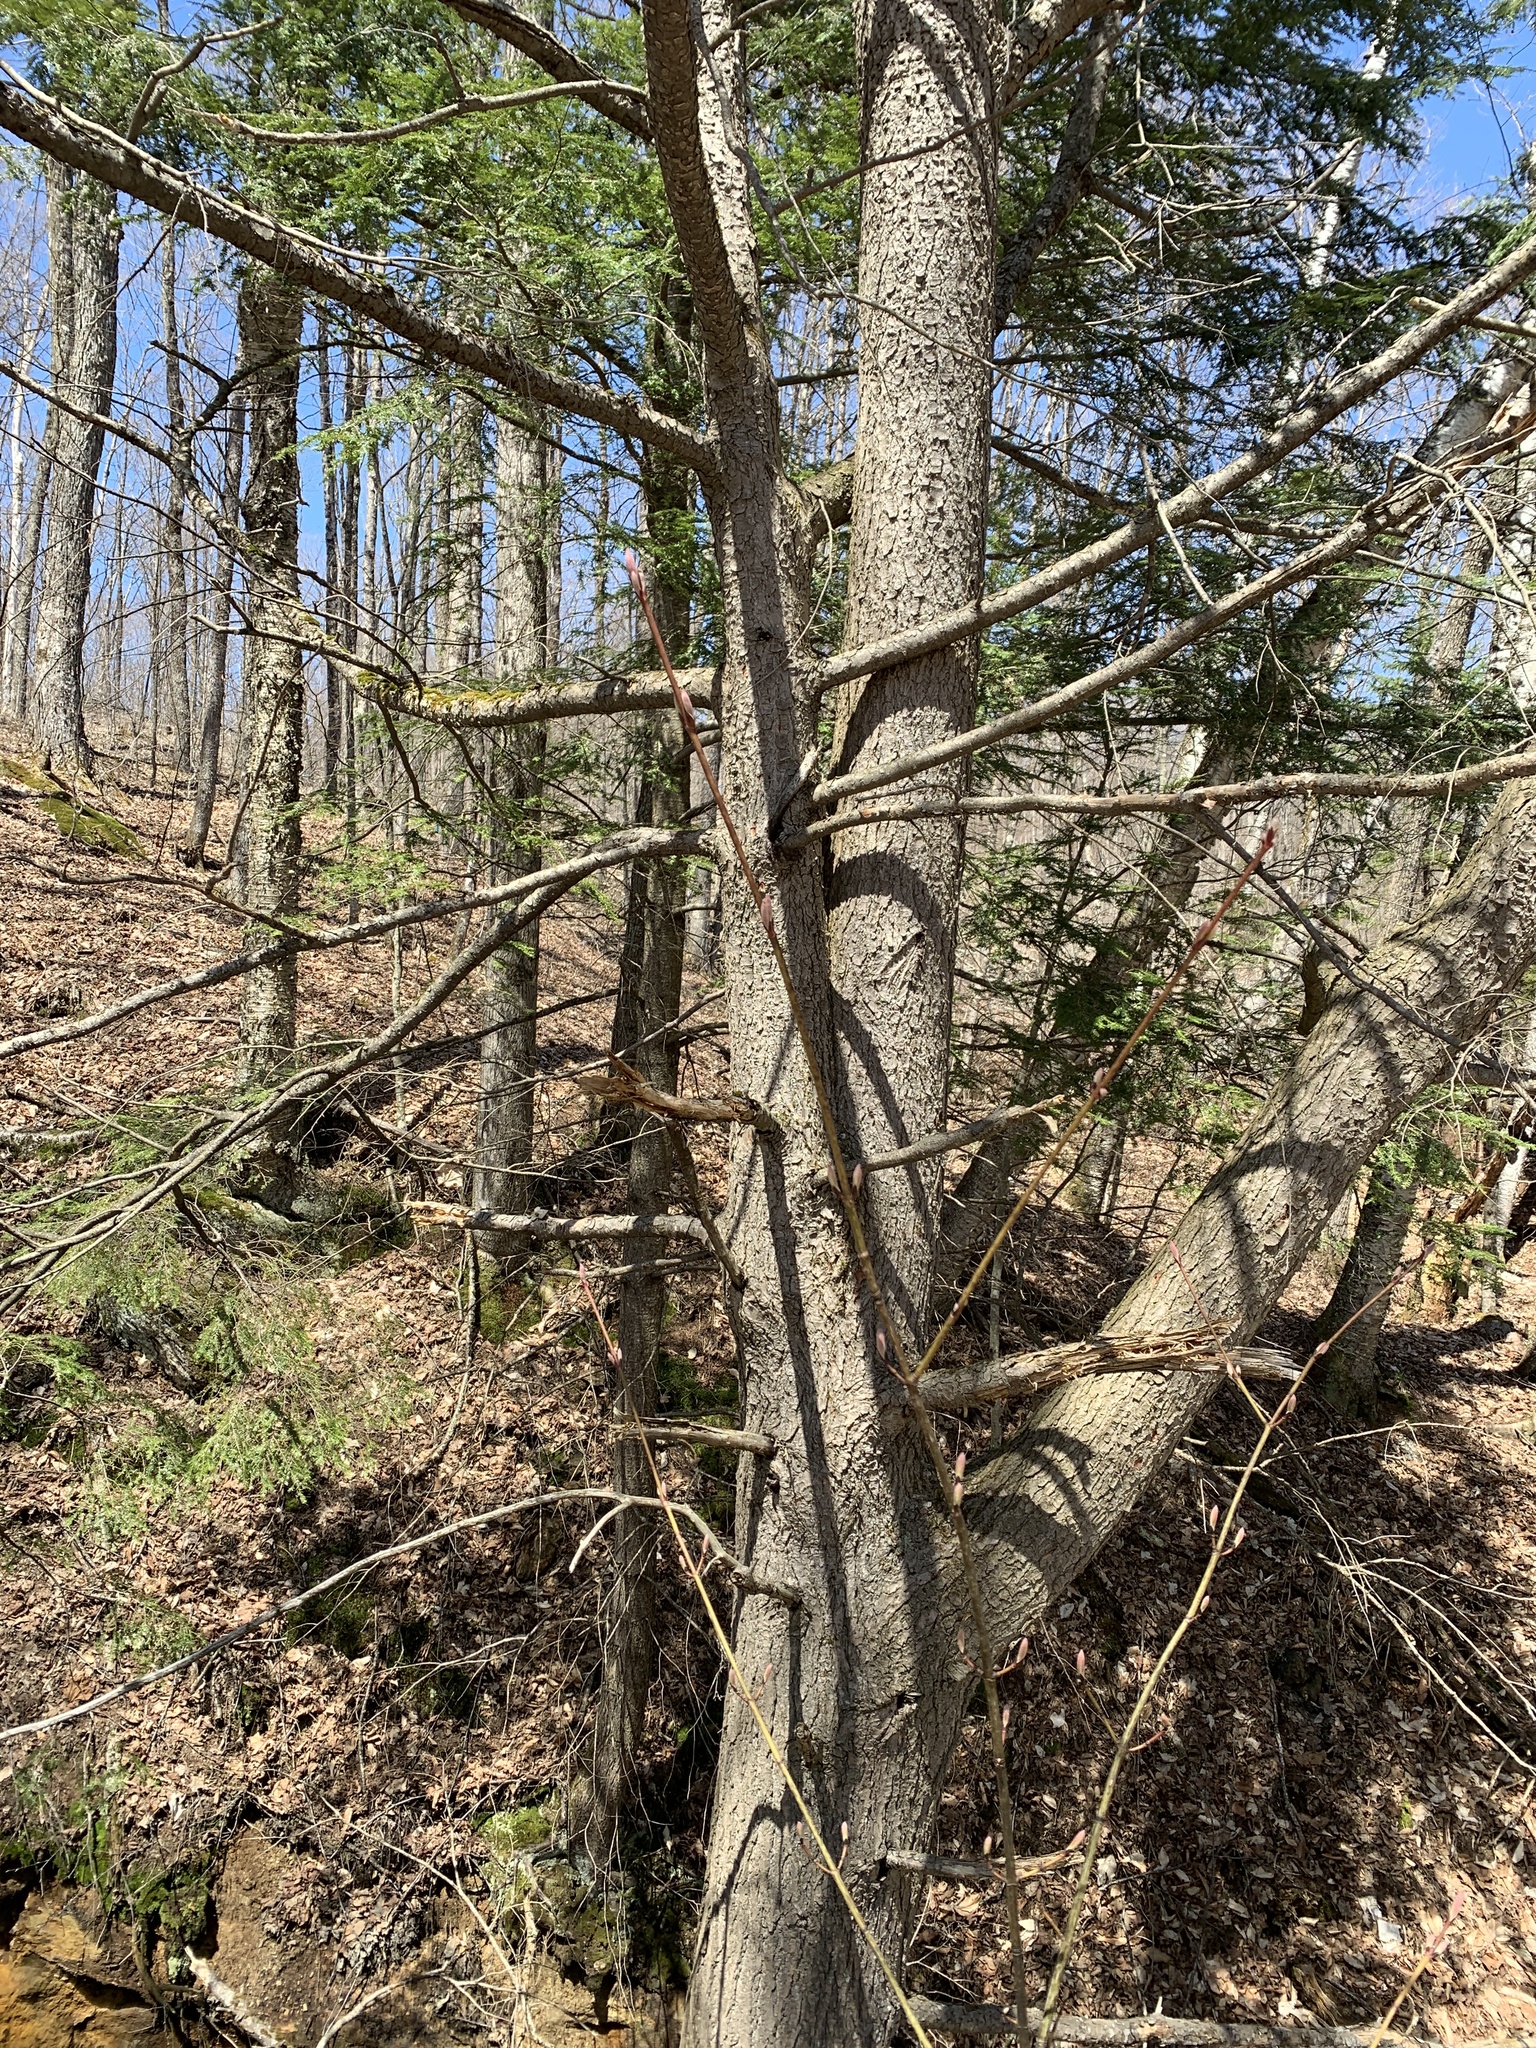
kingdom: Plantae
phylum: Tracheophyta
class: Pinopsida
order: Pinales
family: Pinaceae
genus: Tsuga
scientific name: Tsuga canadensis
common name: Eastern hemlock
